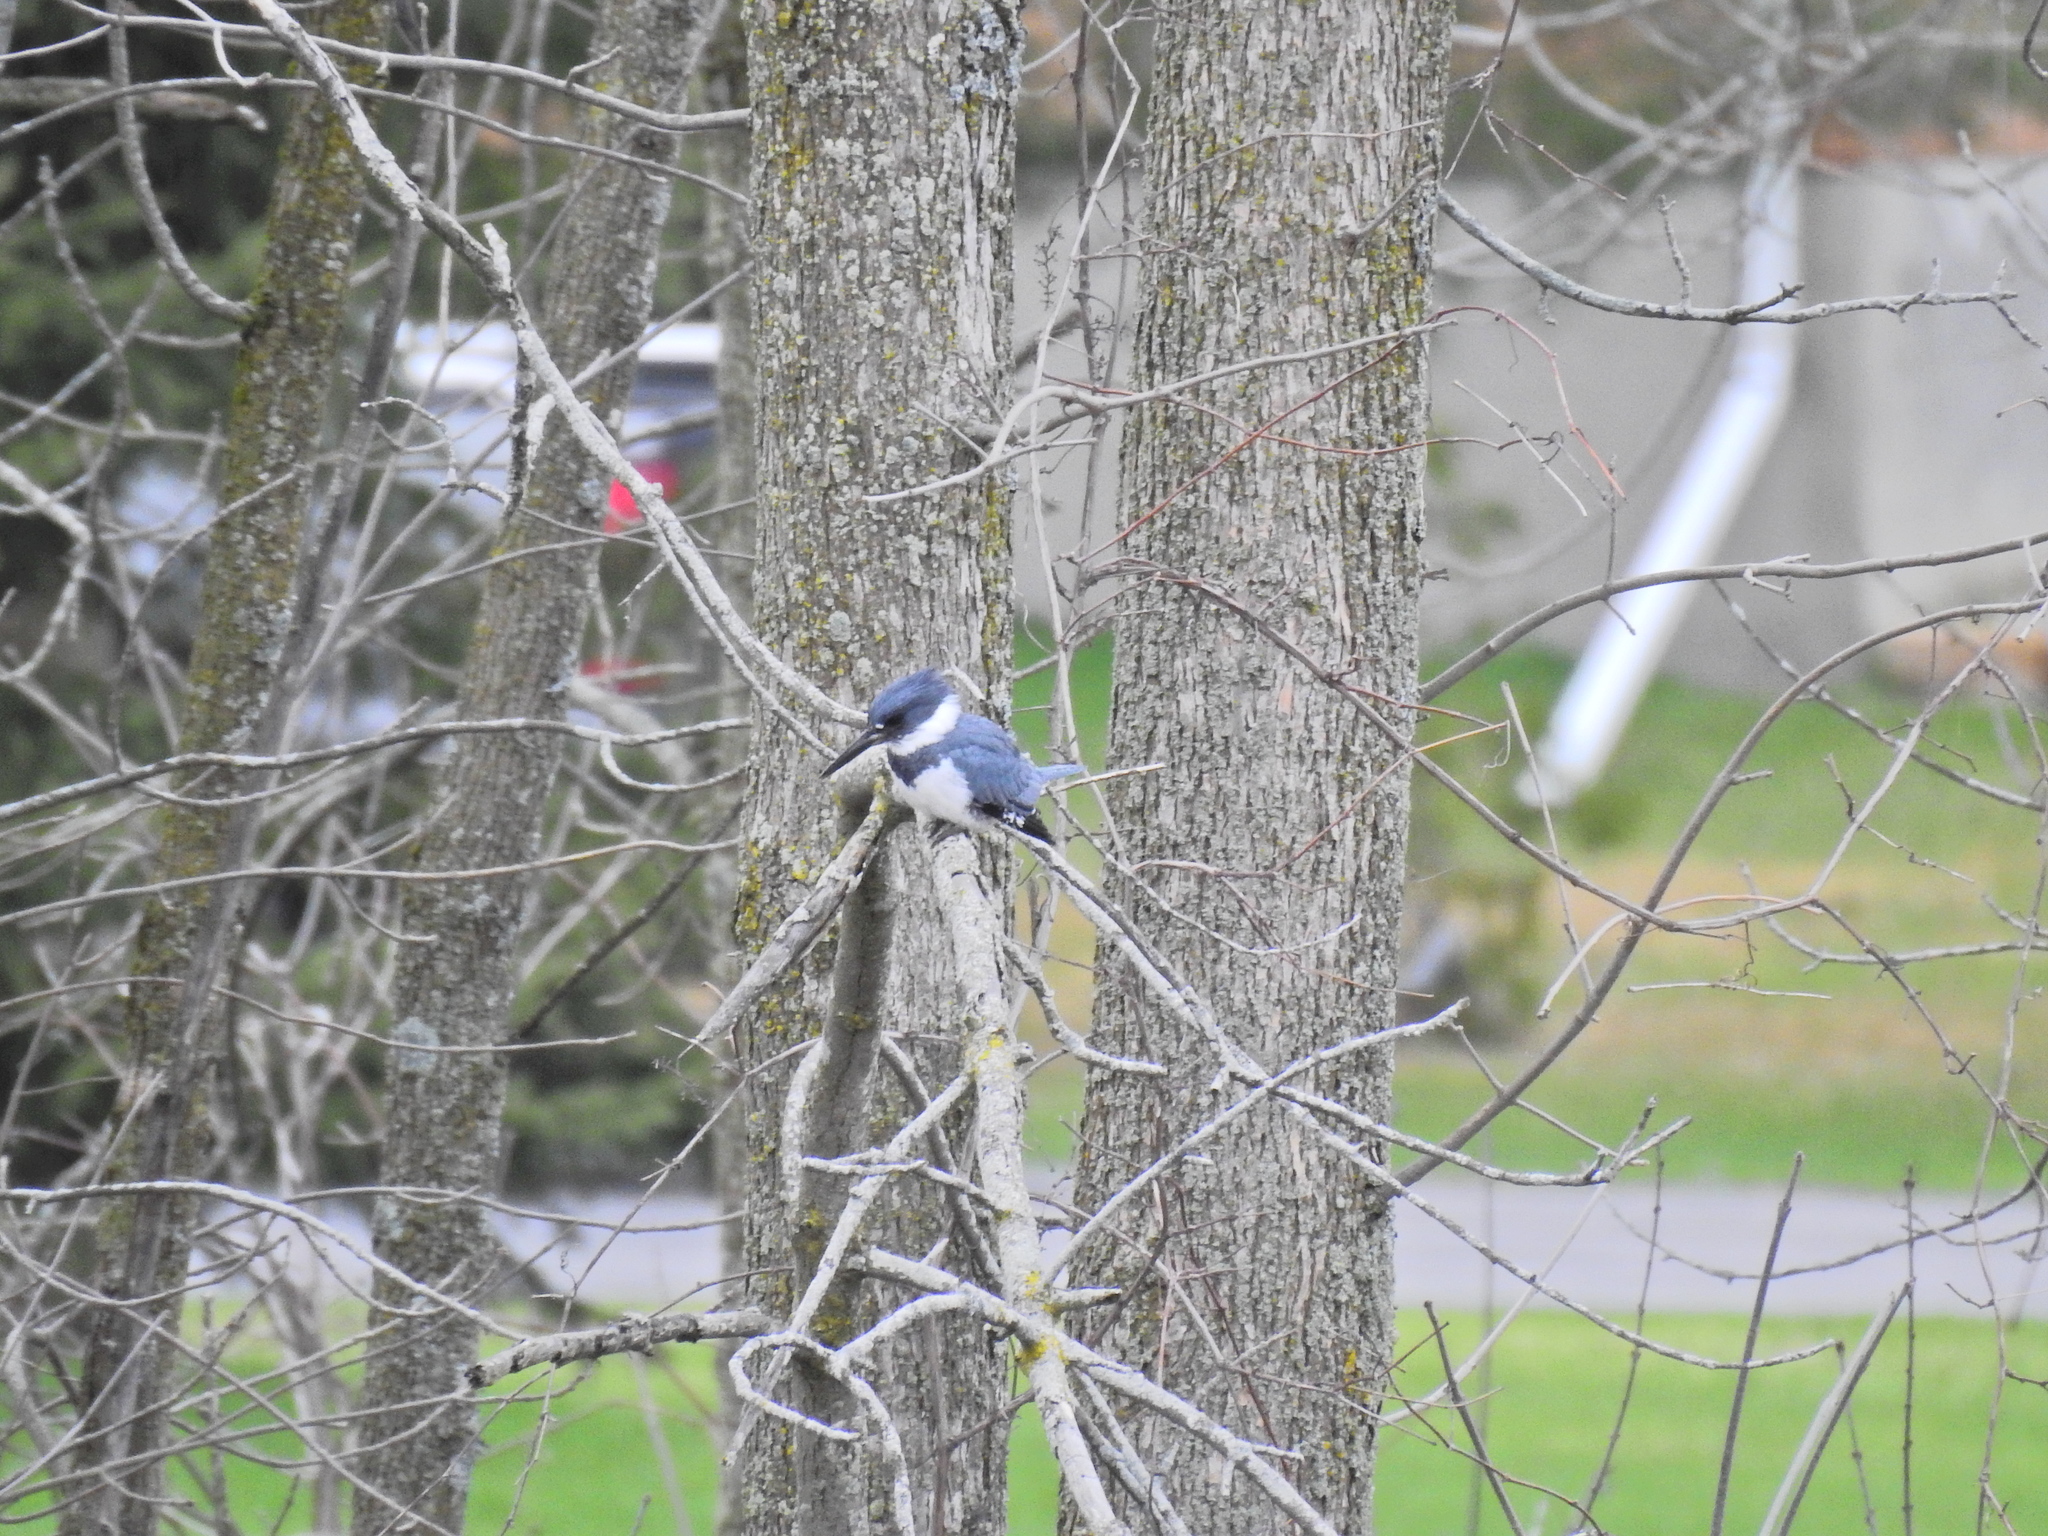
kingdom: Animalia
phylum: Chordata
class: Aves
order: Coraciiformes
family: Alcedinidae
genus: Megaceryle
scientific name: Megaceryle alcyon
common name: Belted kingfisher
